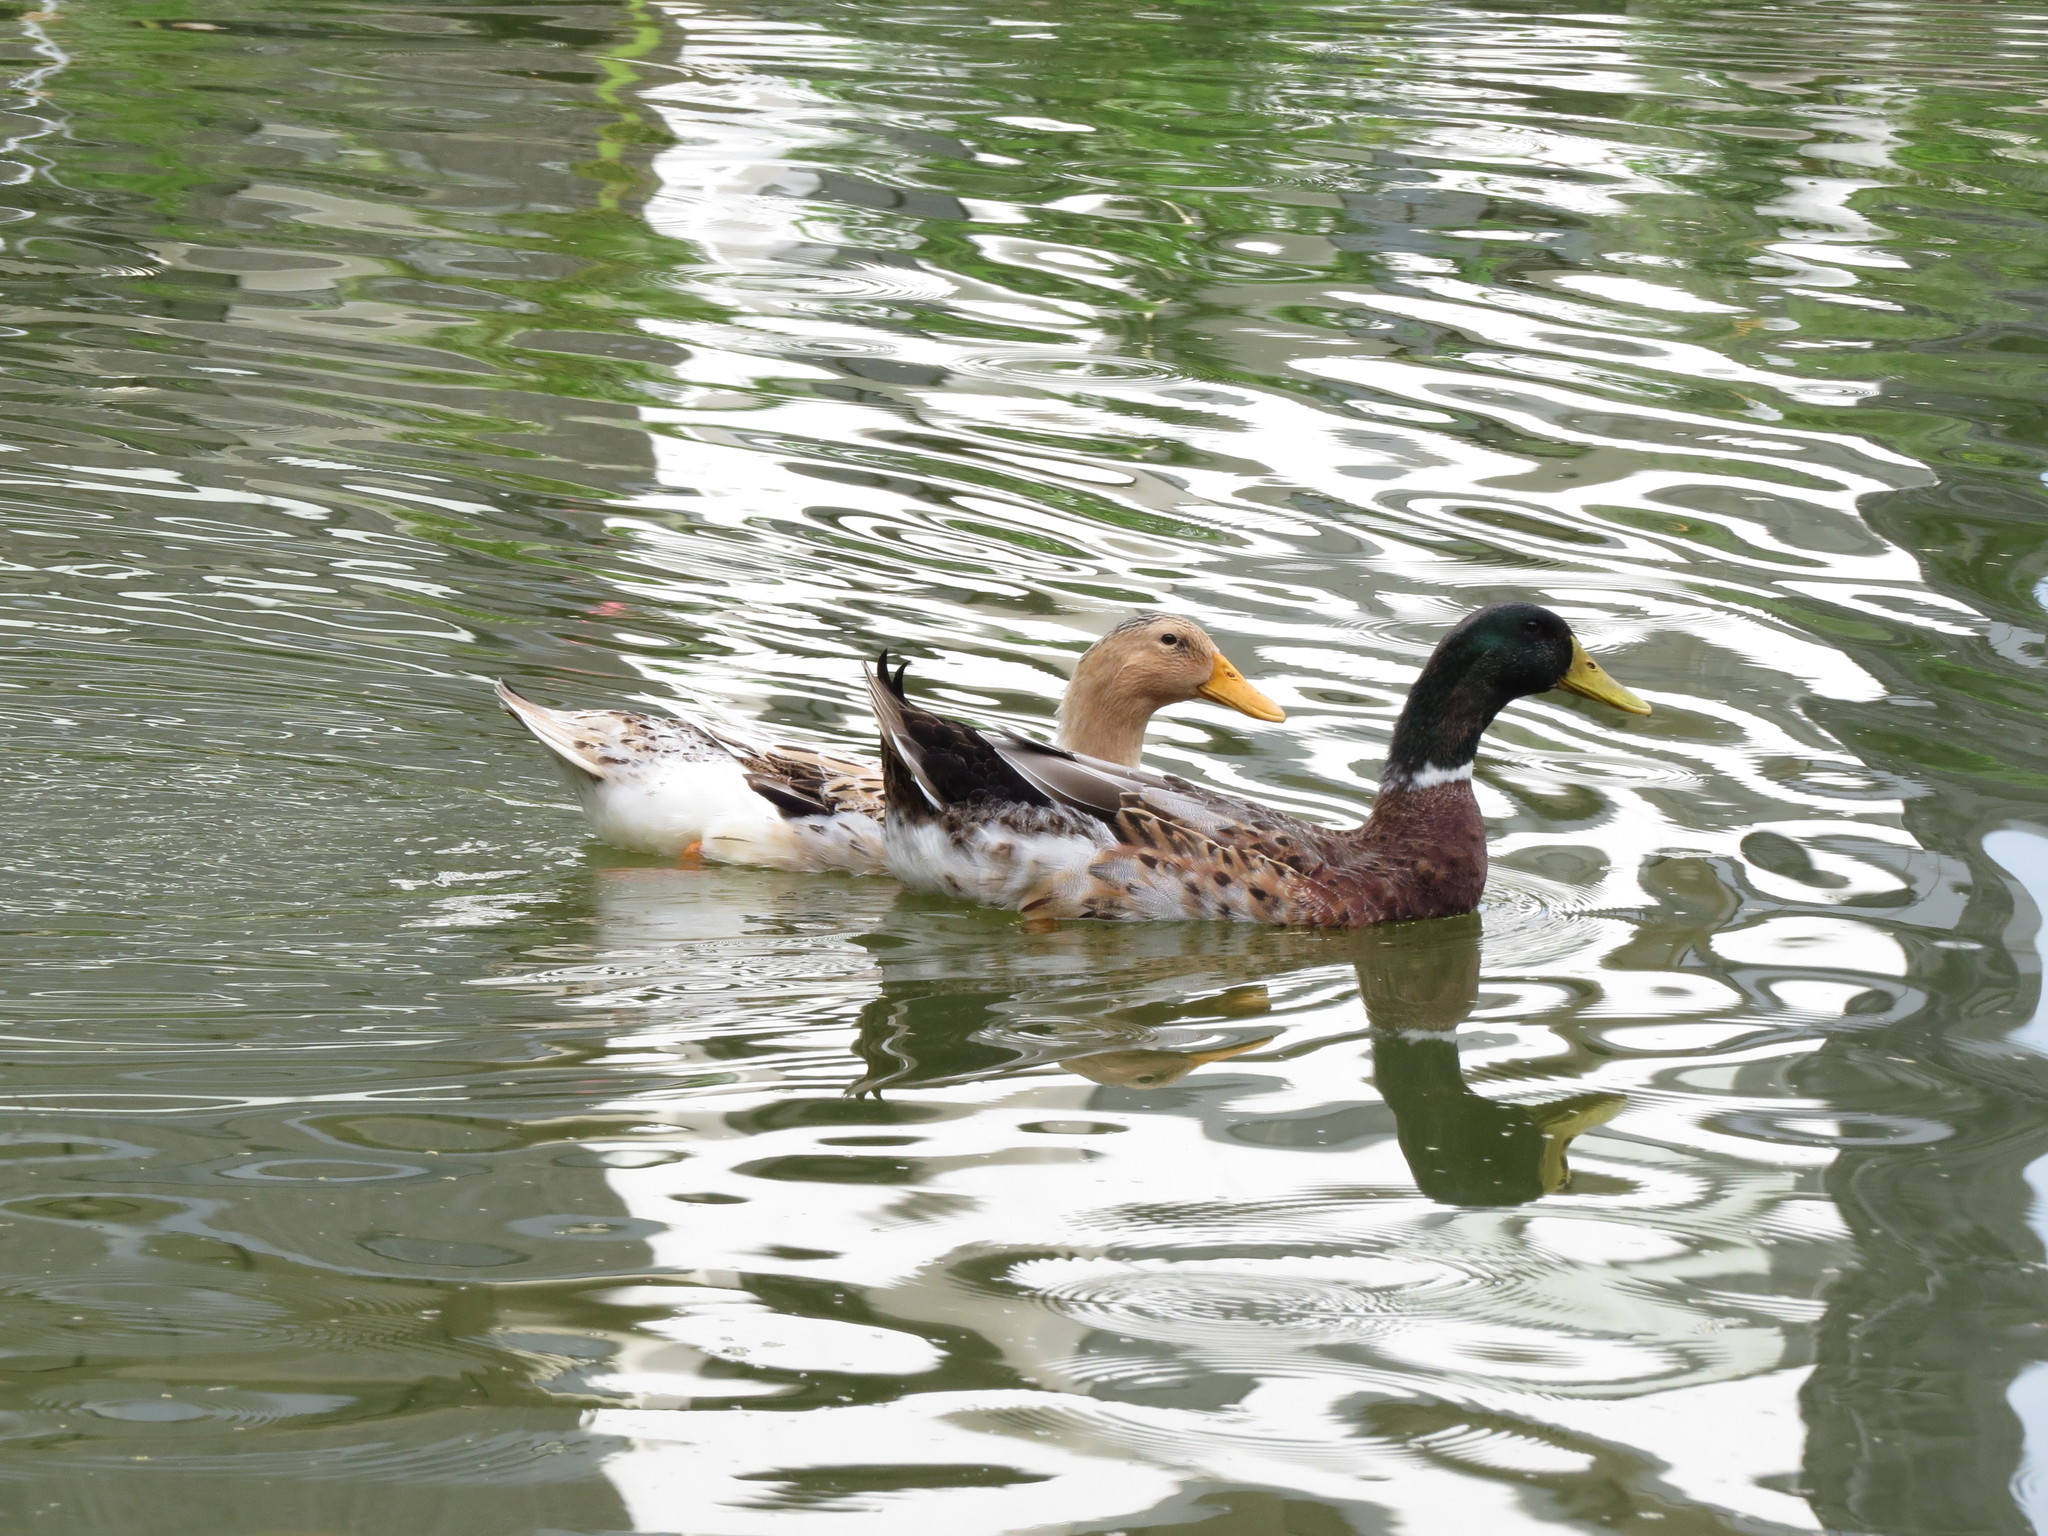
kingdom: Animalia
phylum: Chordata
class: Aves
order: Anseriformes
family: Anatidae
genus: Anas
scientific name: Anas platyrhynchos
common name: Mallard
